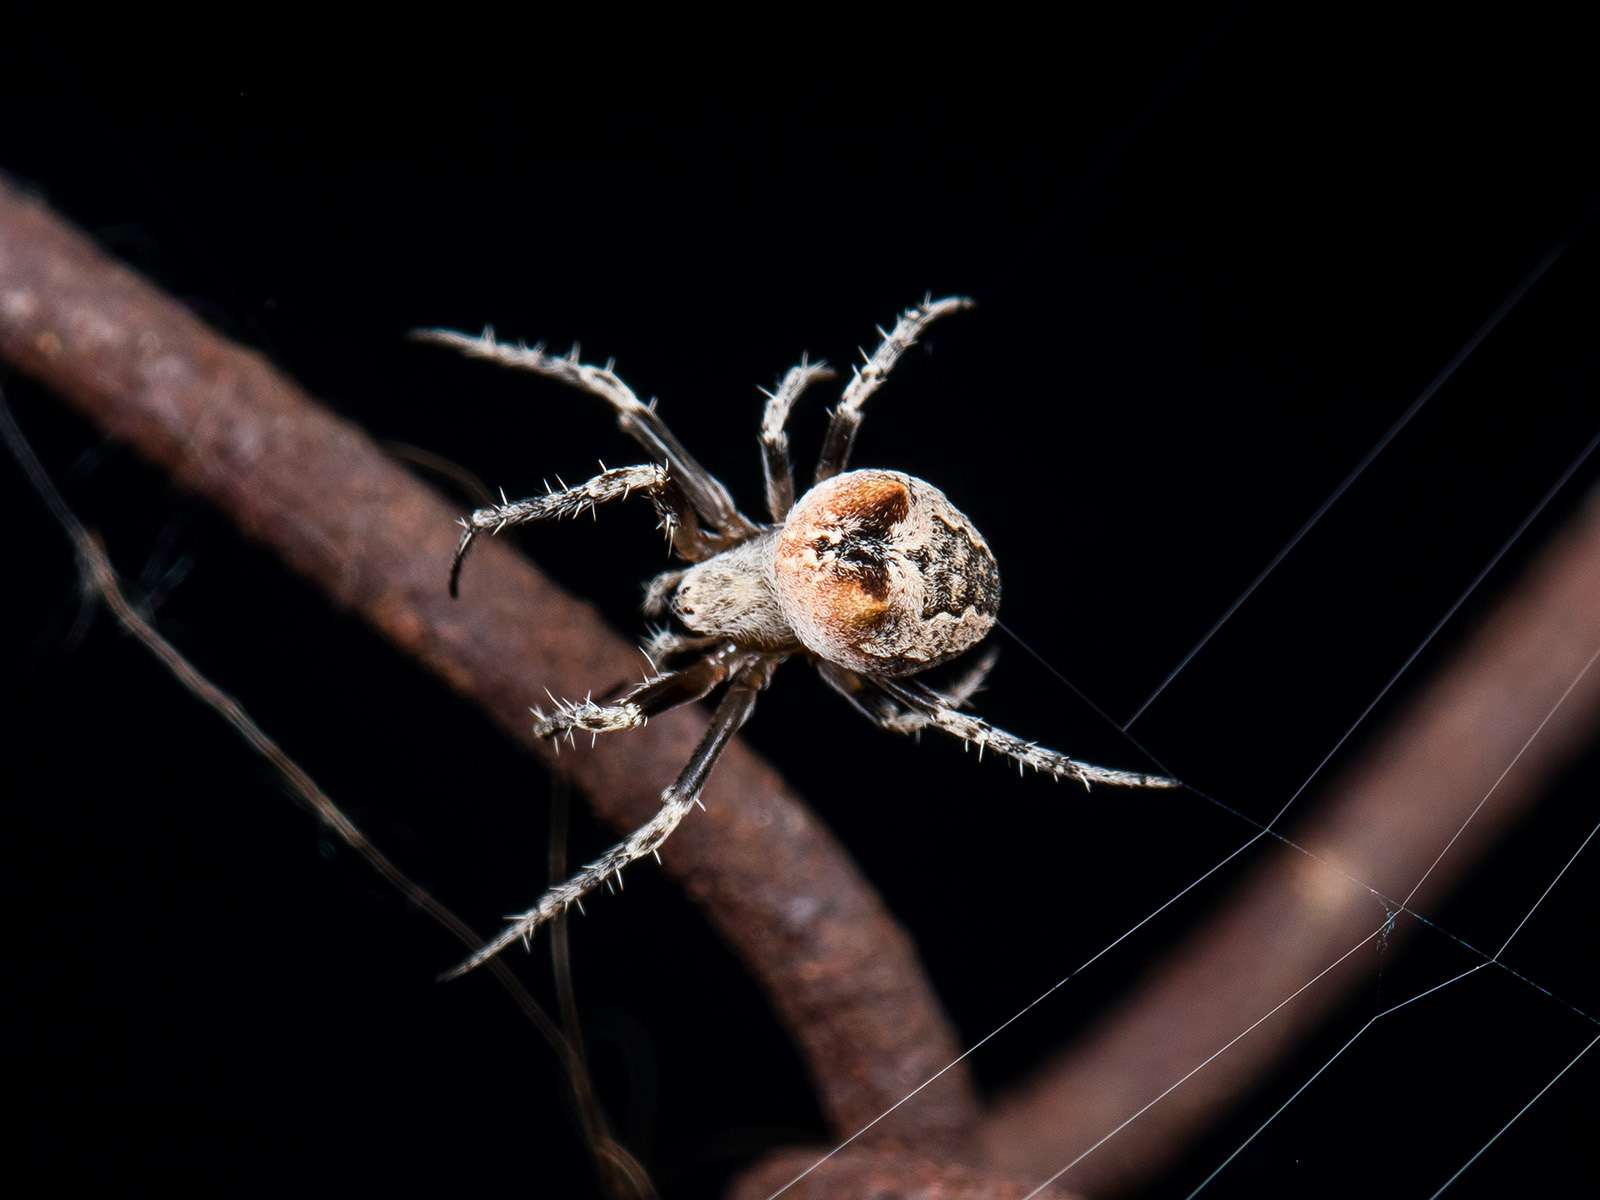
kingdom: Animalia
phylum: Arthropoda
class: Arachnida
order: Araneae
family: Araneidae
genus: Araneus
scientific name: Araneus strandiellus
